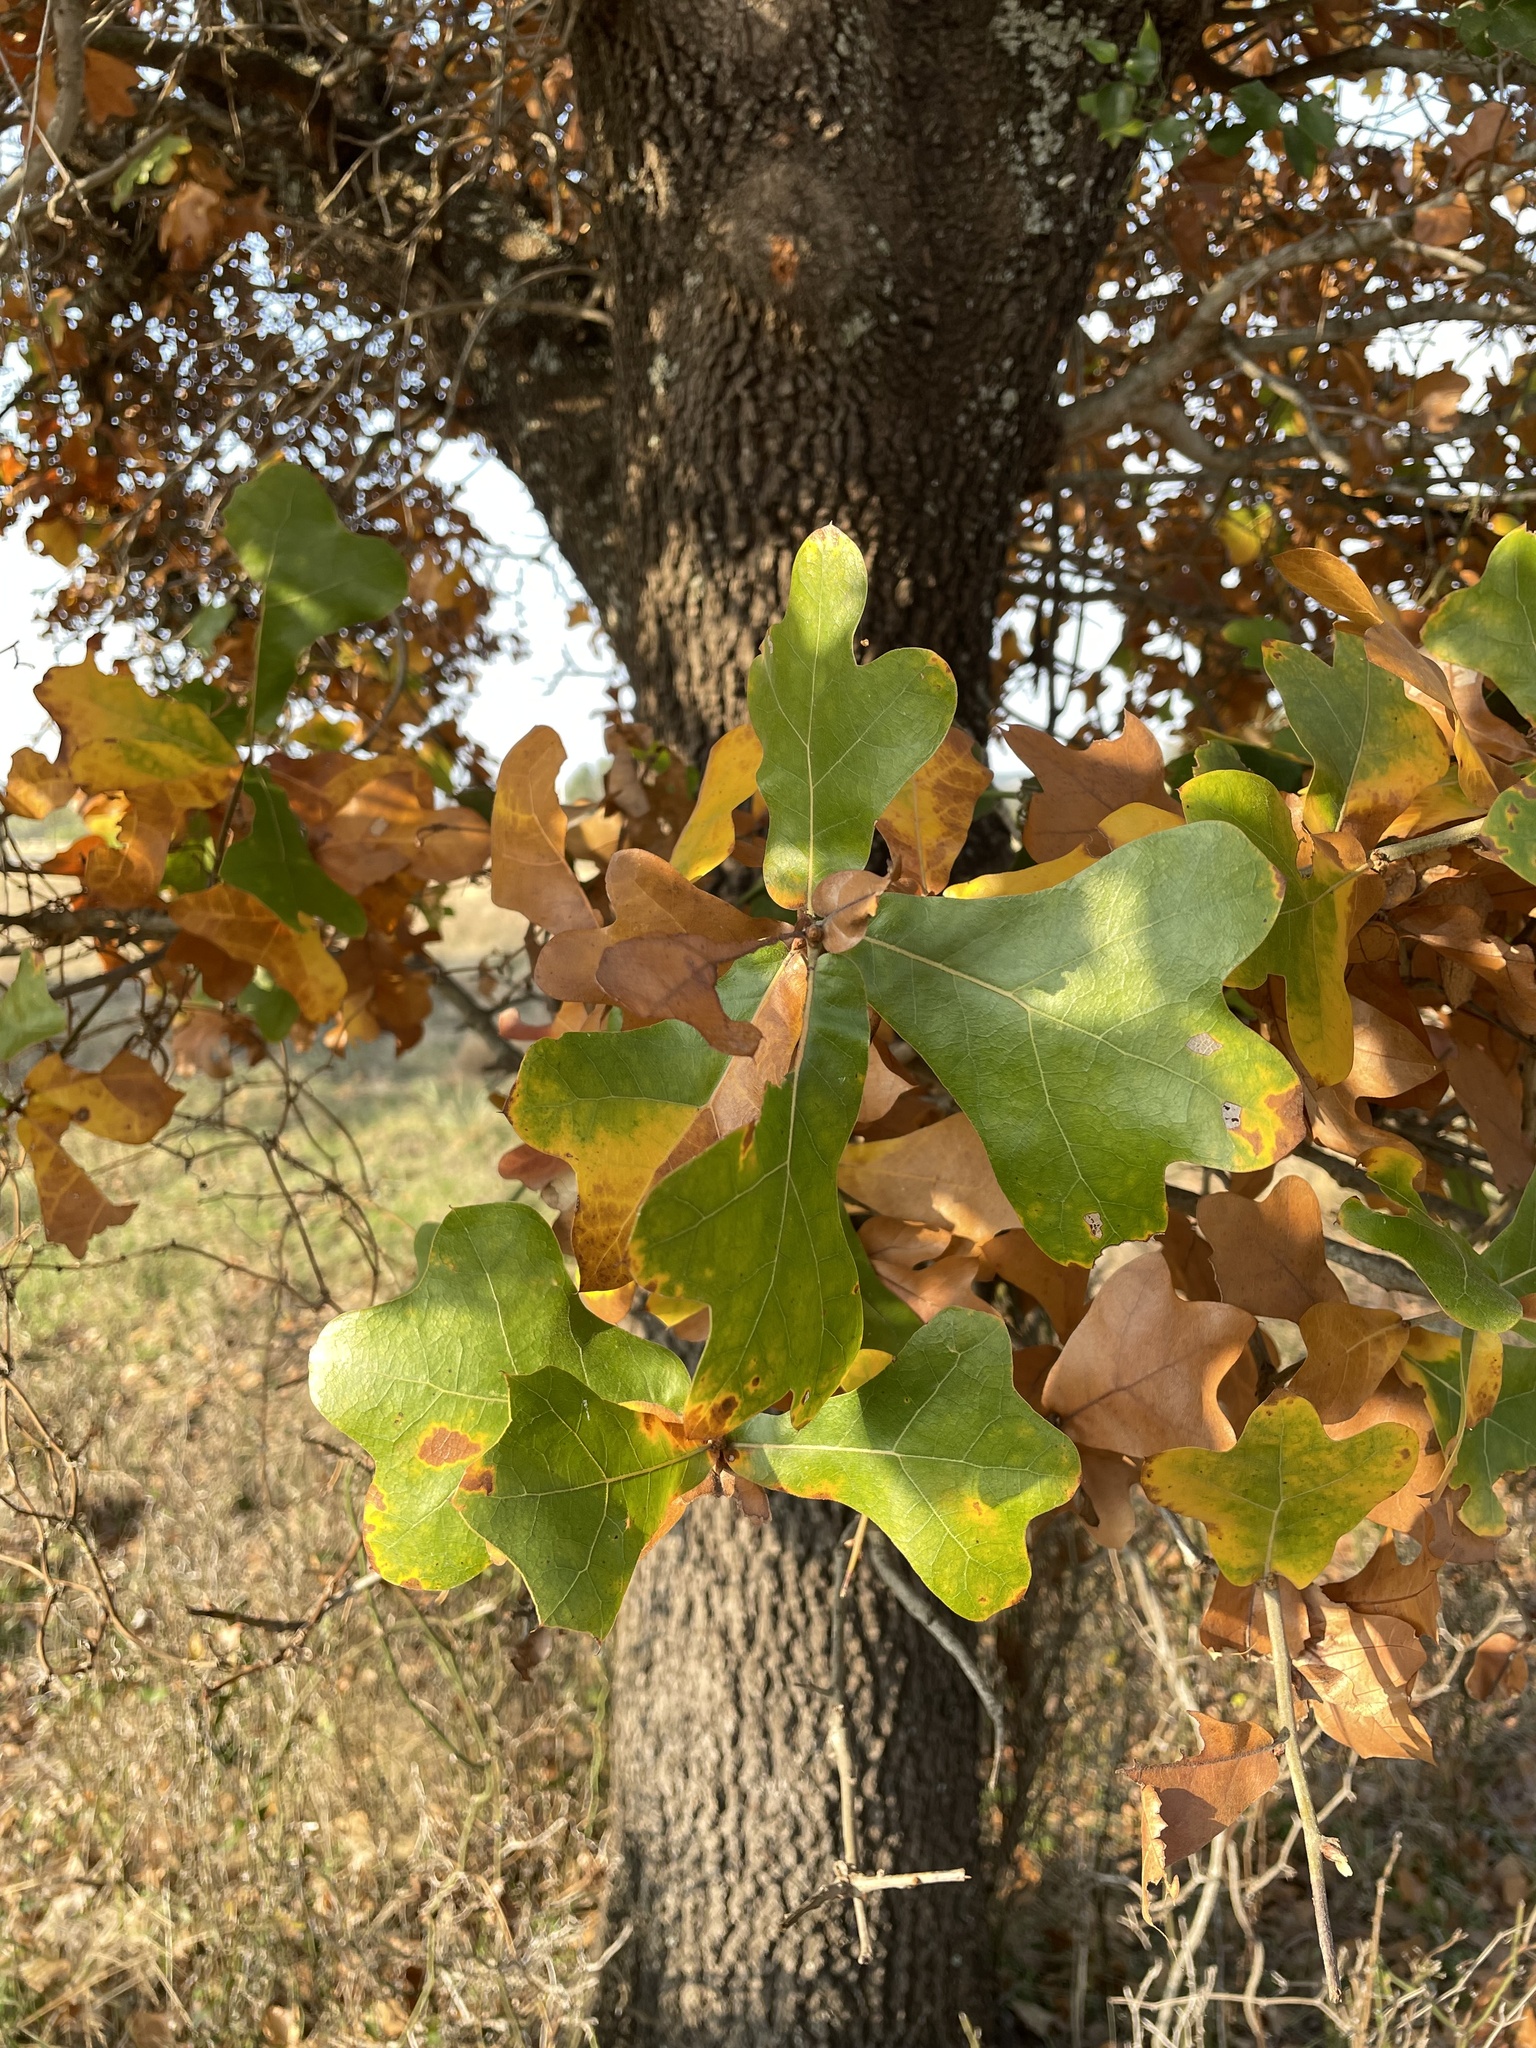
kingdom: Plantae
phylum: Tracheophyta
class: Magnoliopsida
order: Fagales
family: Fagaceae
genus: Quercus
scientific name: Quercus marilandica
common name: Blackjack oak
